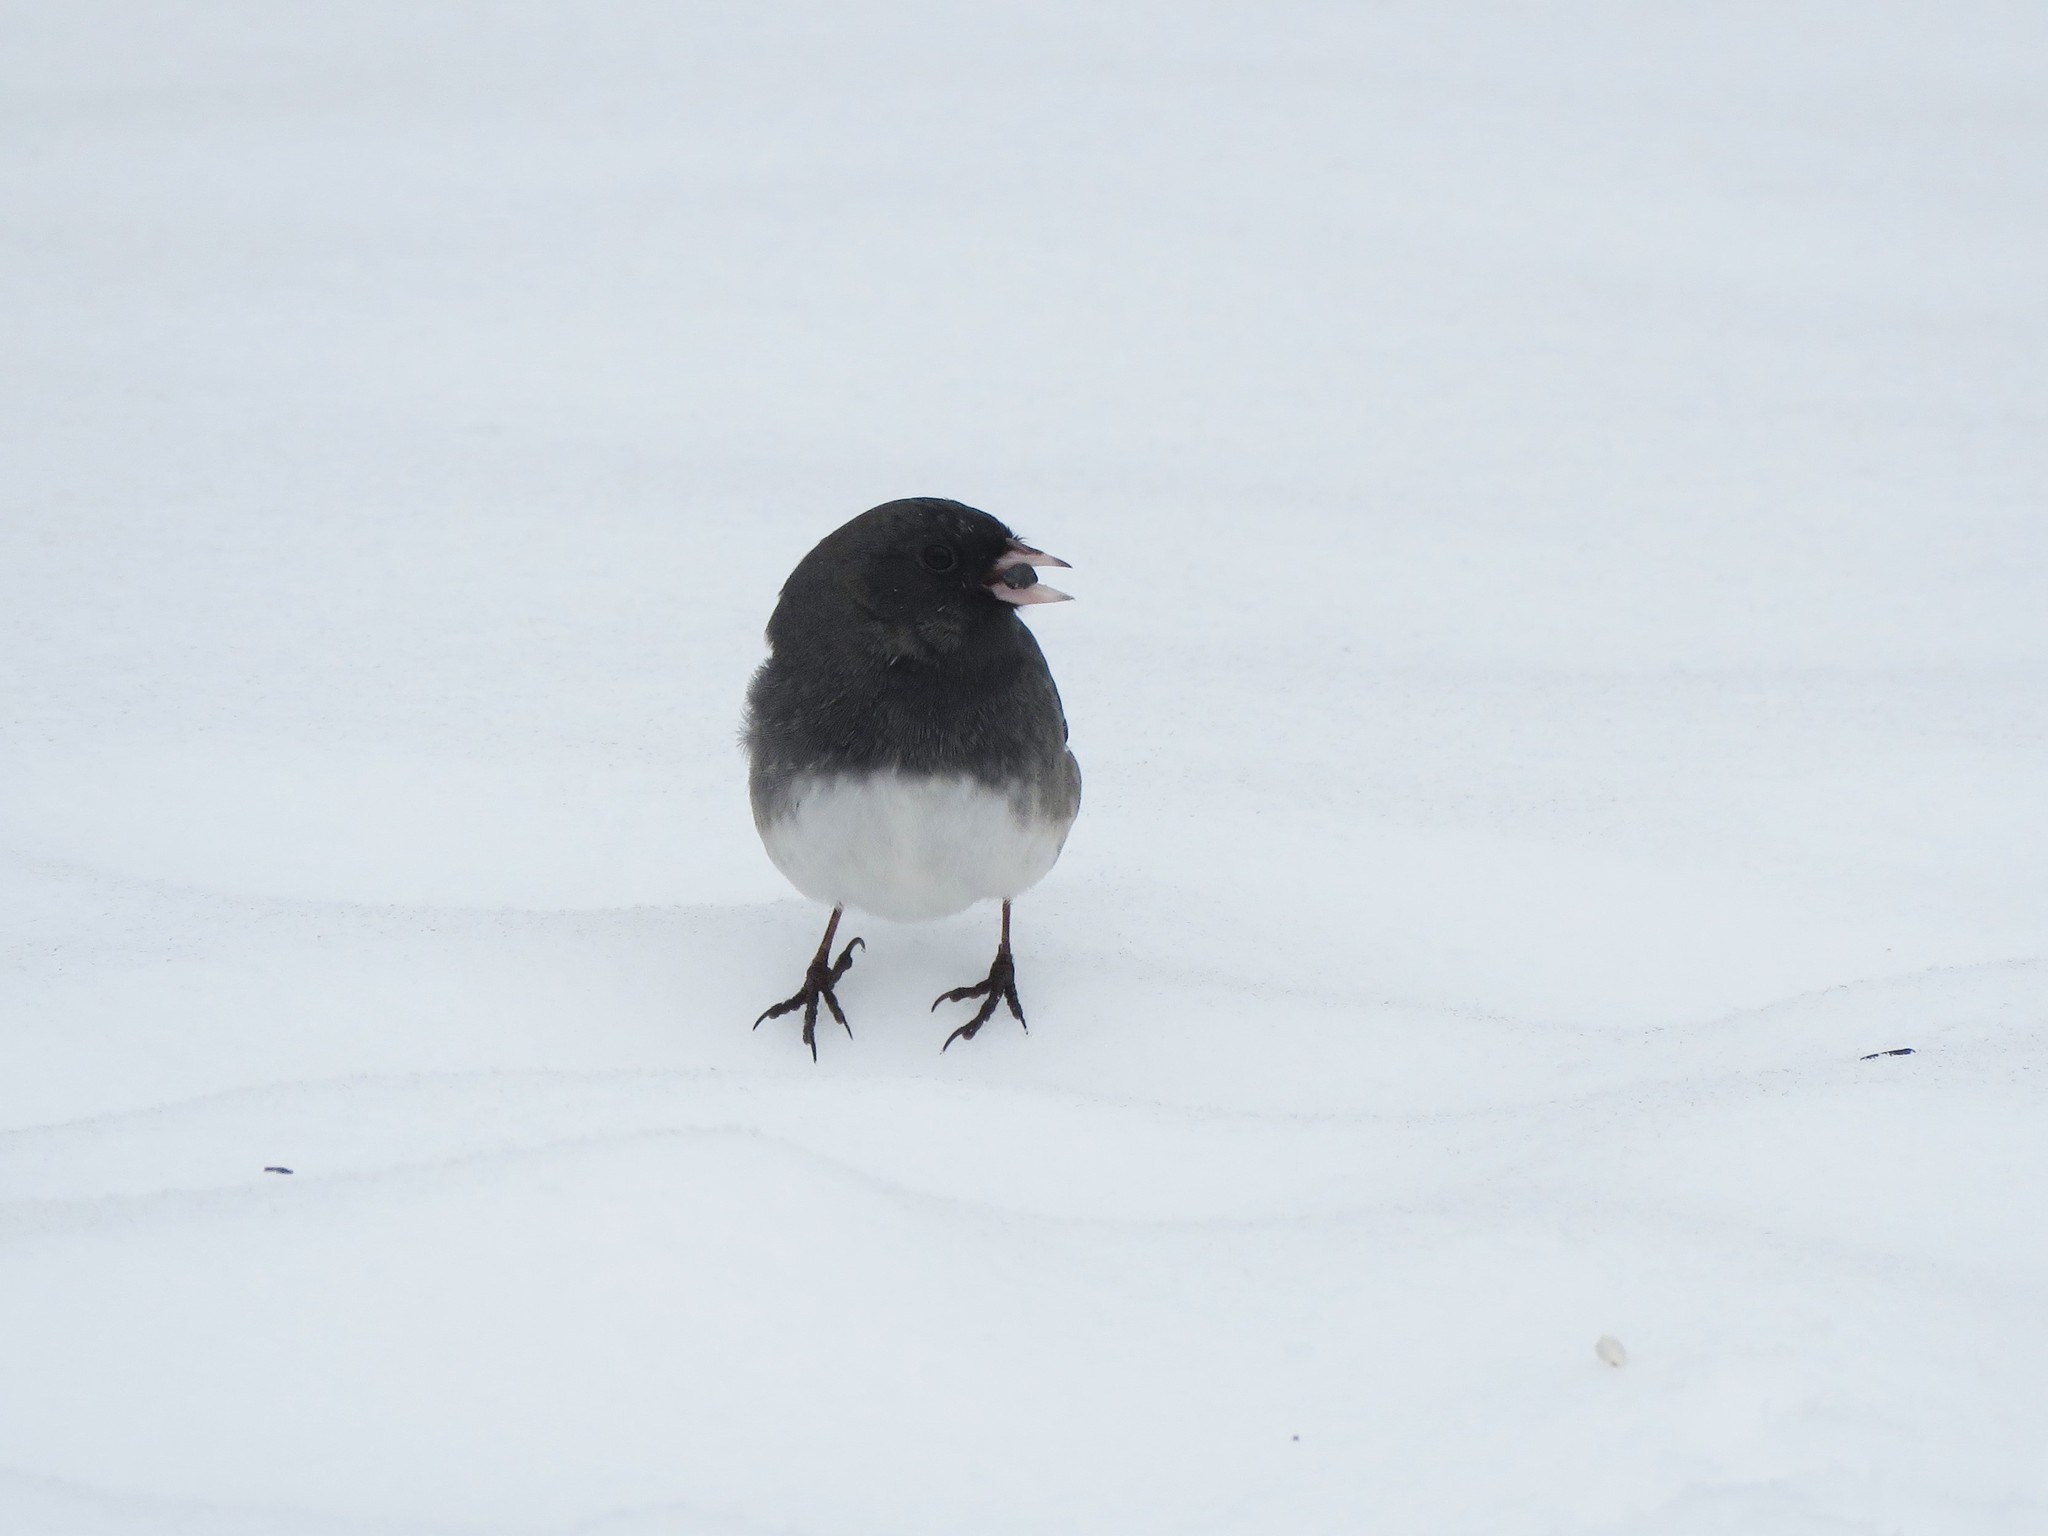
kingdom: Animalia
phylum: Chordata
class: Aves
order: Passeriformes
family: Passerellidae
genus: Junco
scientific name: Junco hyemalis
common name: Dark-eyed junco
